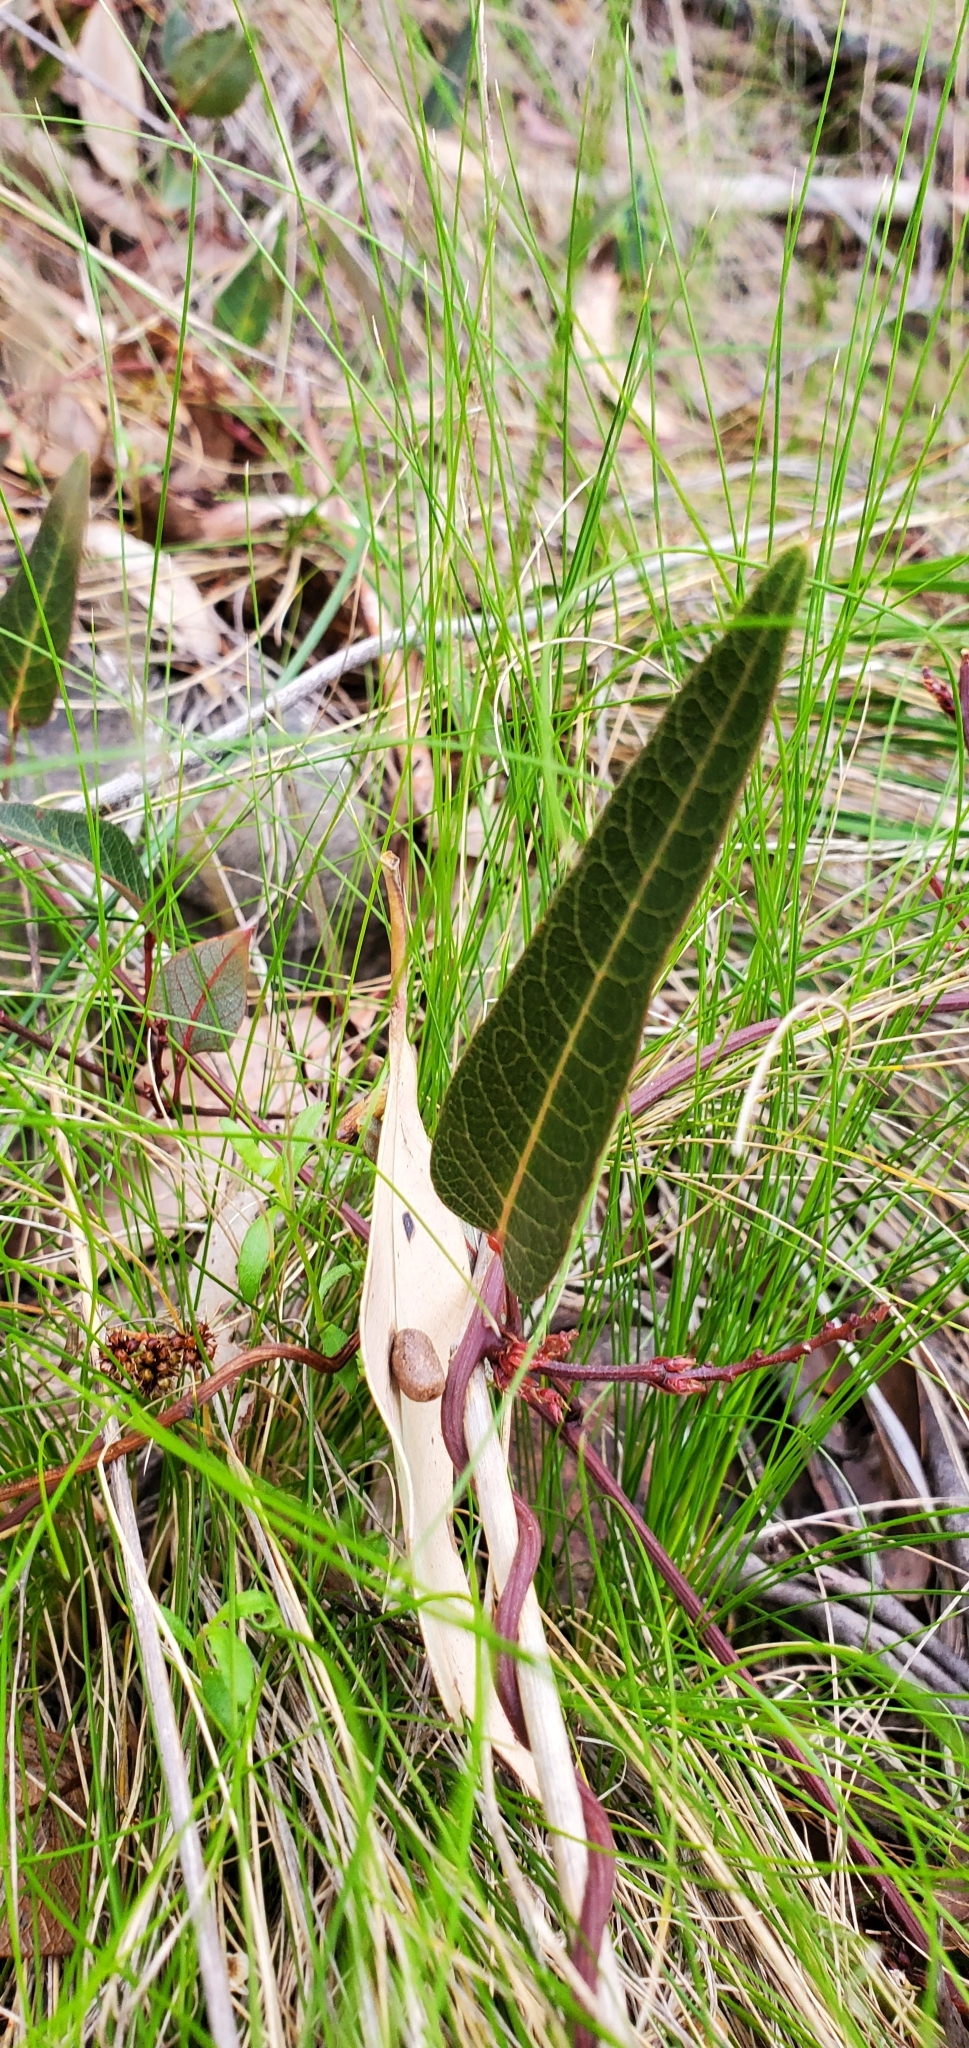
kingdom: Plantae
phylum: Tracheophyta
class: Magnoliopsida
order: Fabales
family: Fabaceae
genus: Hardenbergia
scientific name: Hardenbergia violacea
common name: Coral-pea
